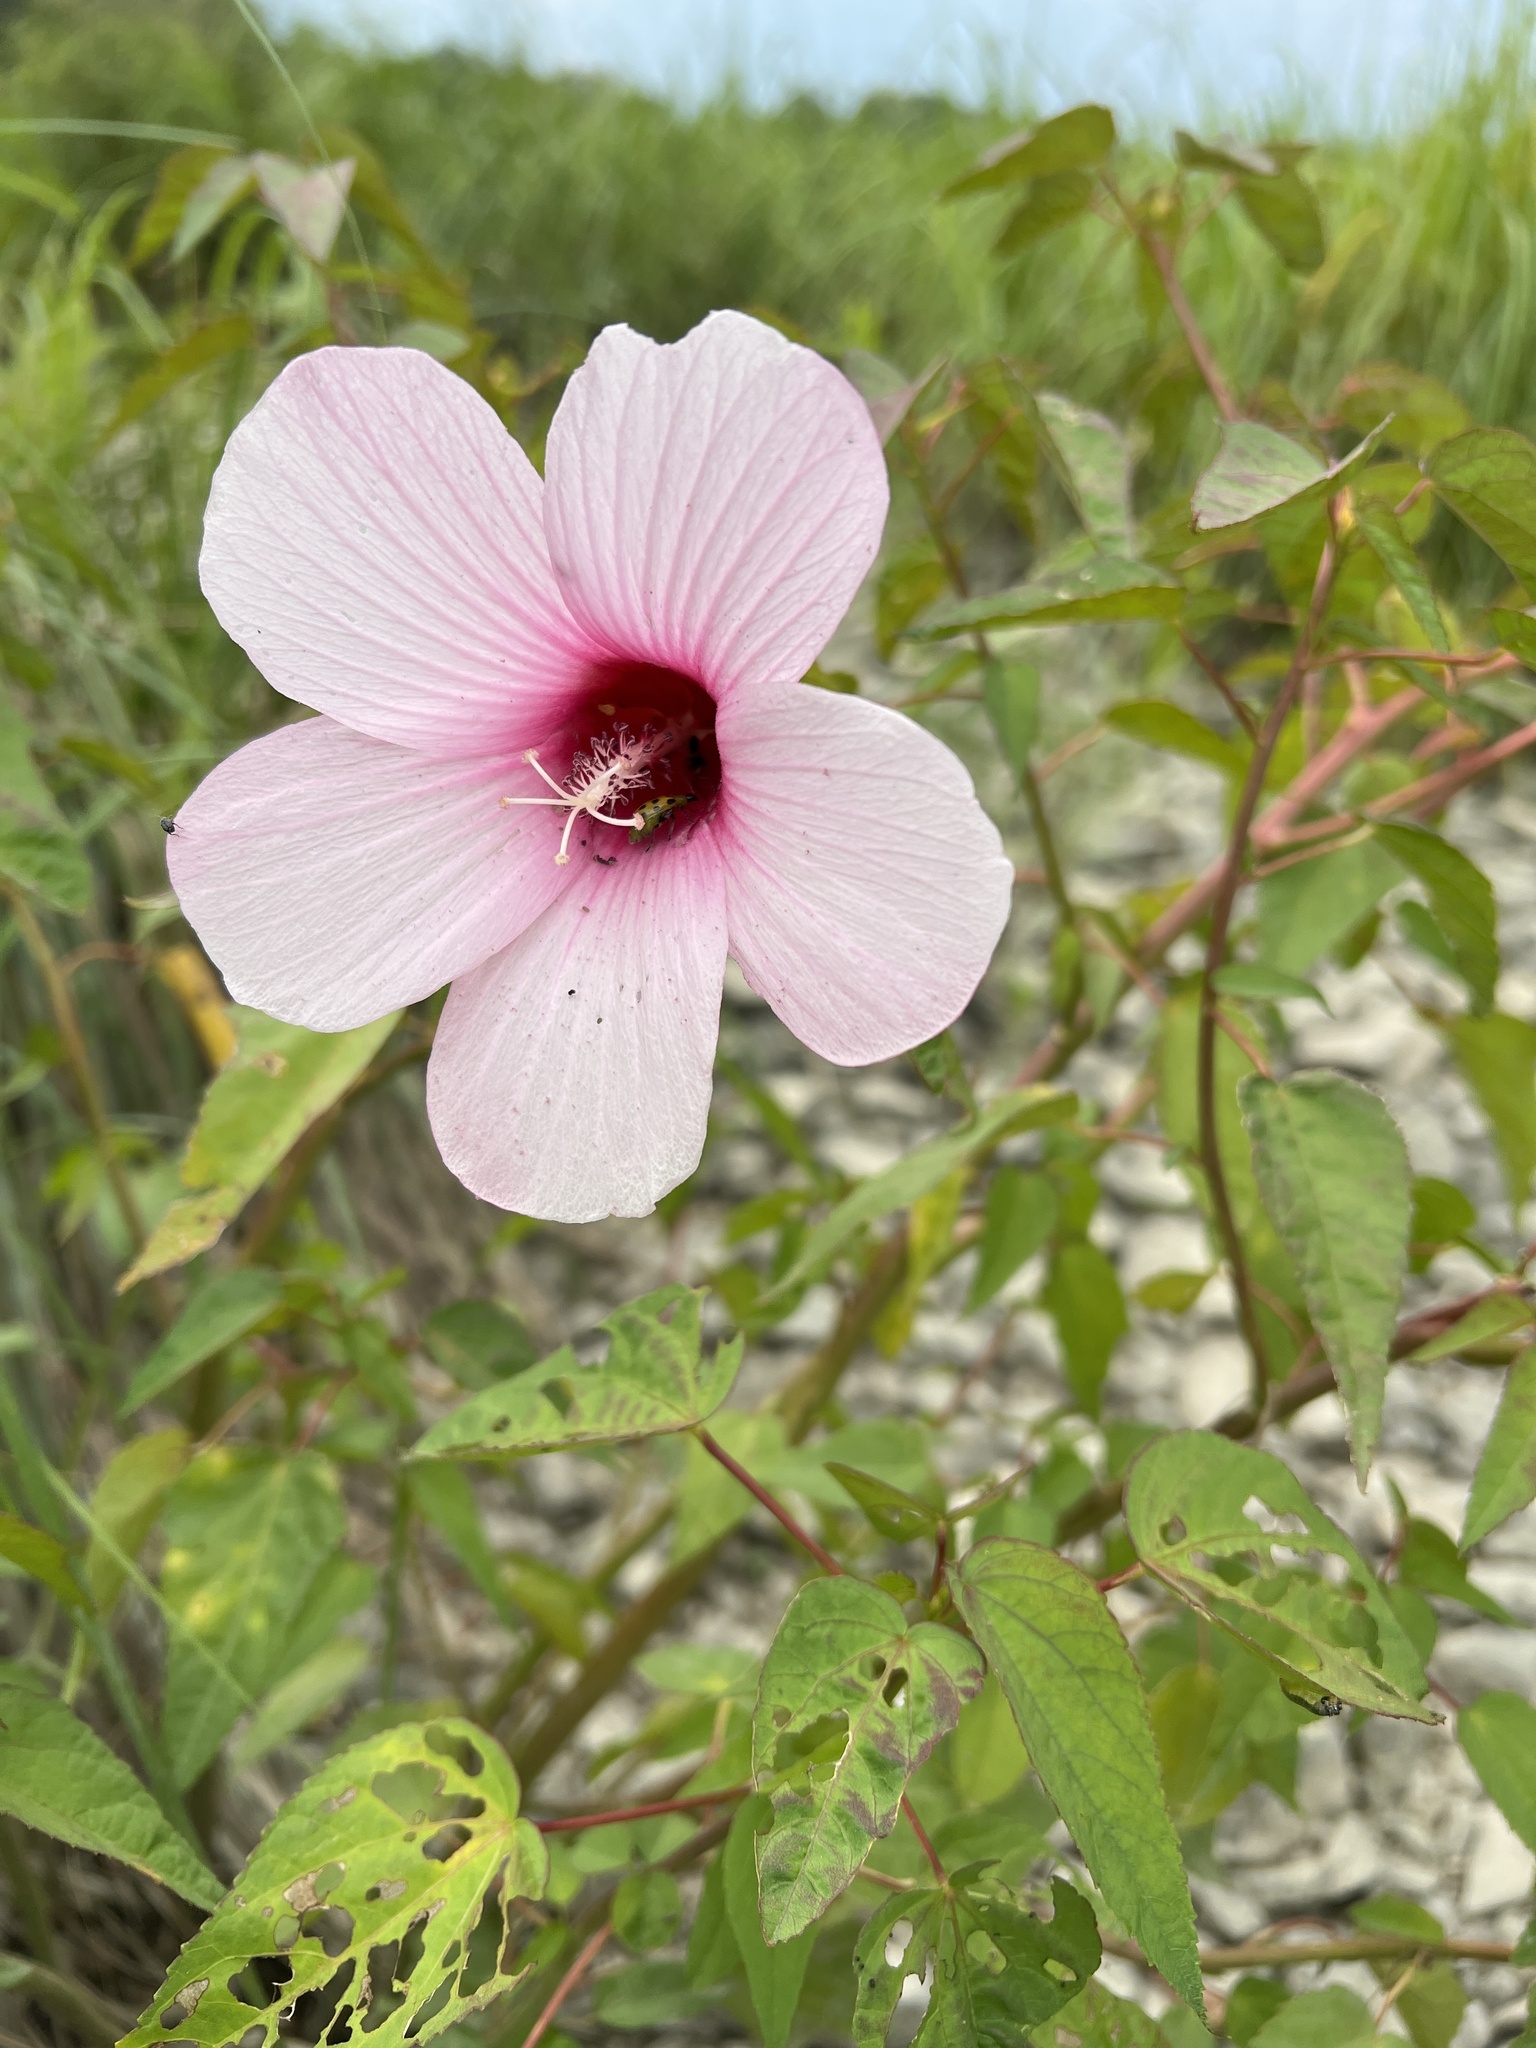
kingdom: Plantae
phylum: Tracheophyta
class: Magnoliopsida
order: Malvales
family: Malvaceae
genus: Hibiscus
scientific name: Hibiscus laevis
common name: Scarlet rose-mallow
